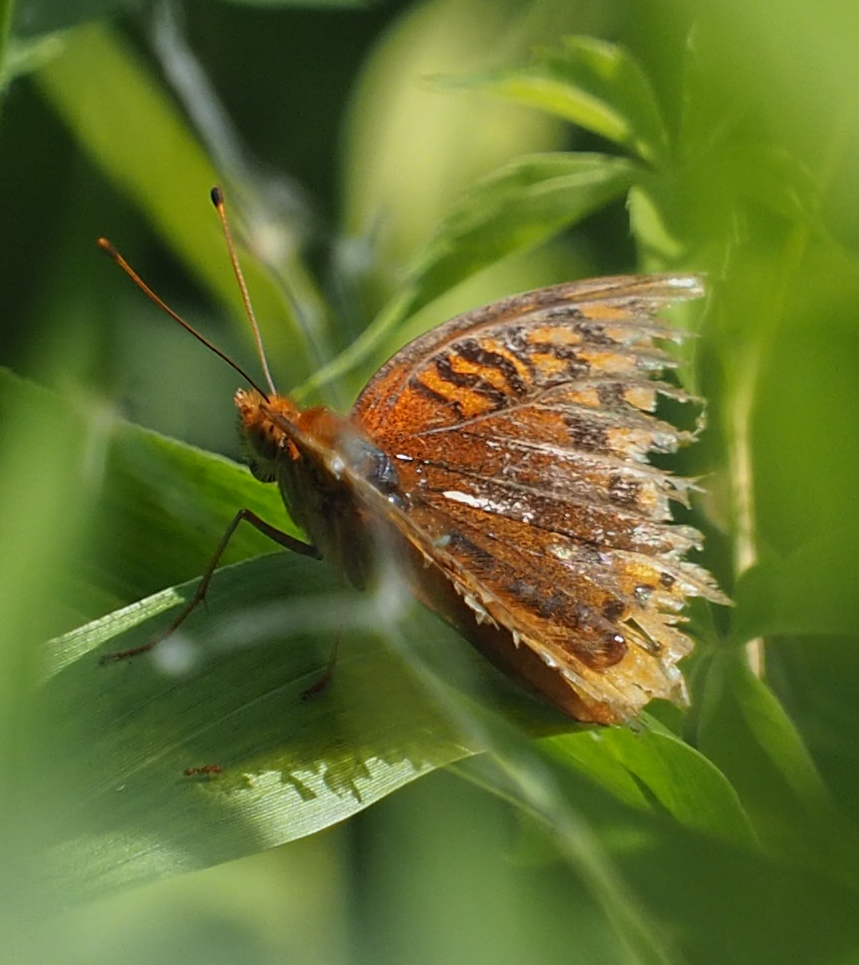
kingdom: Animalia
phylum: Arthropoda
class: Insecta
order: Lepidoptera
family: Nymphalidae
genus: Speyeria
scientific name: Speyeria cybele
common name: Great spangled fritillary
